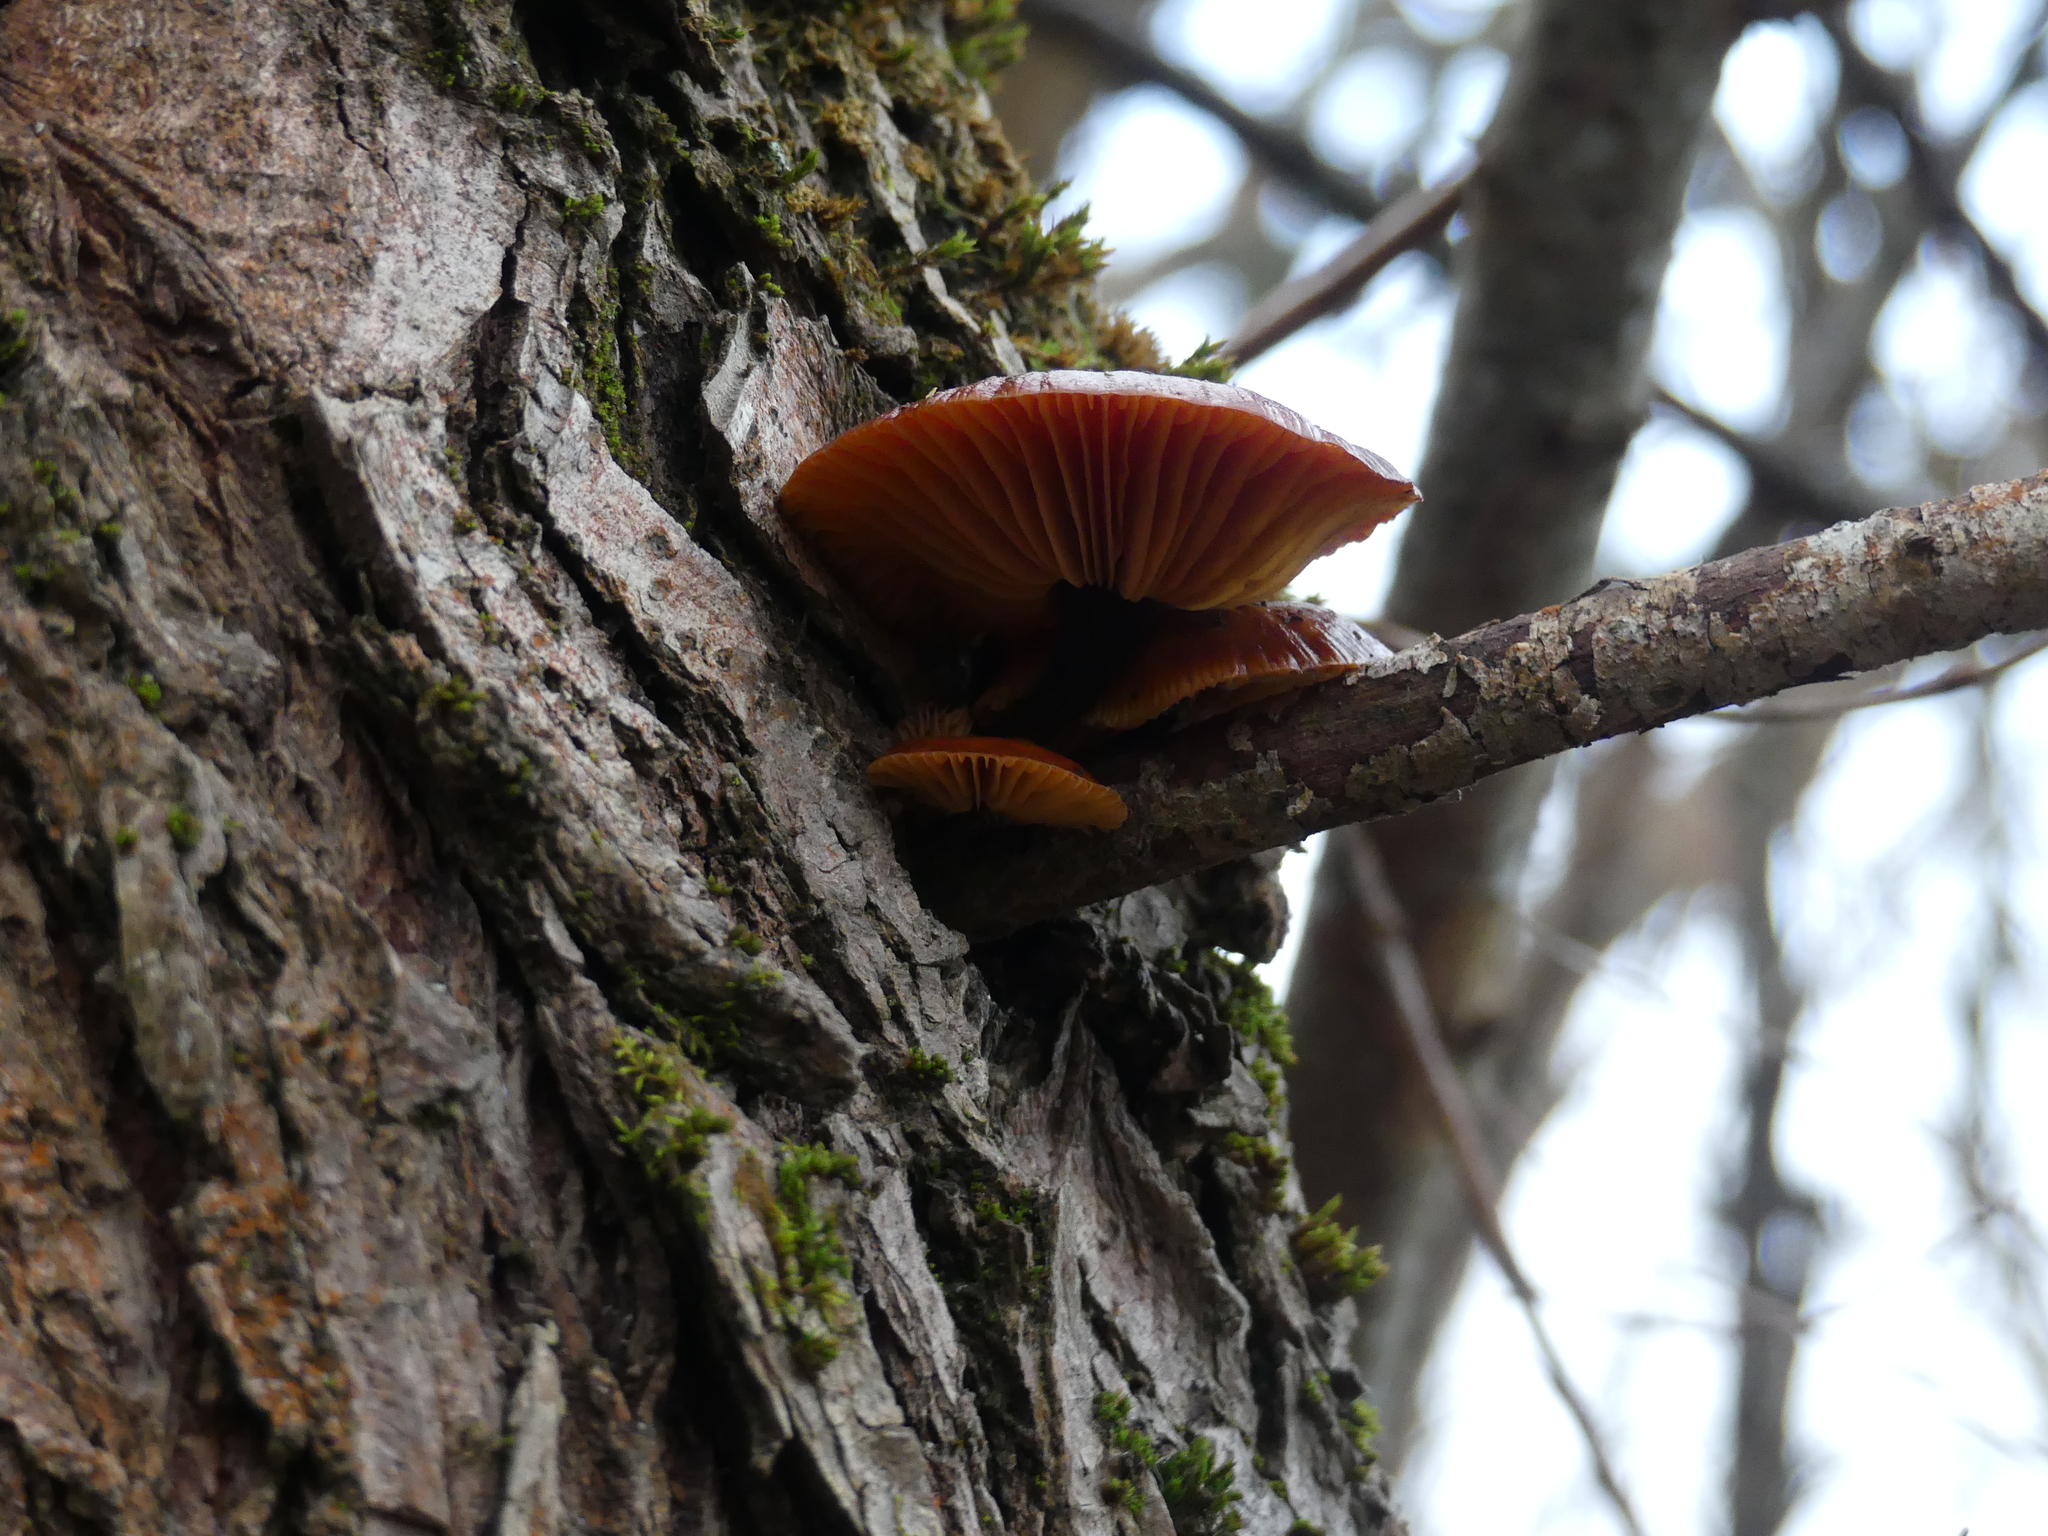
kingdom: Fungi
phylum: Basidiomycota
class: Agaricomycetes
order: Agaricales
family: Physalacriaceae
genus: Flammulina
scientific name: Flammulina
